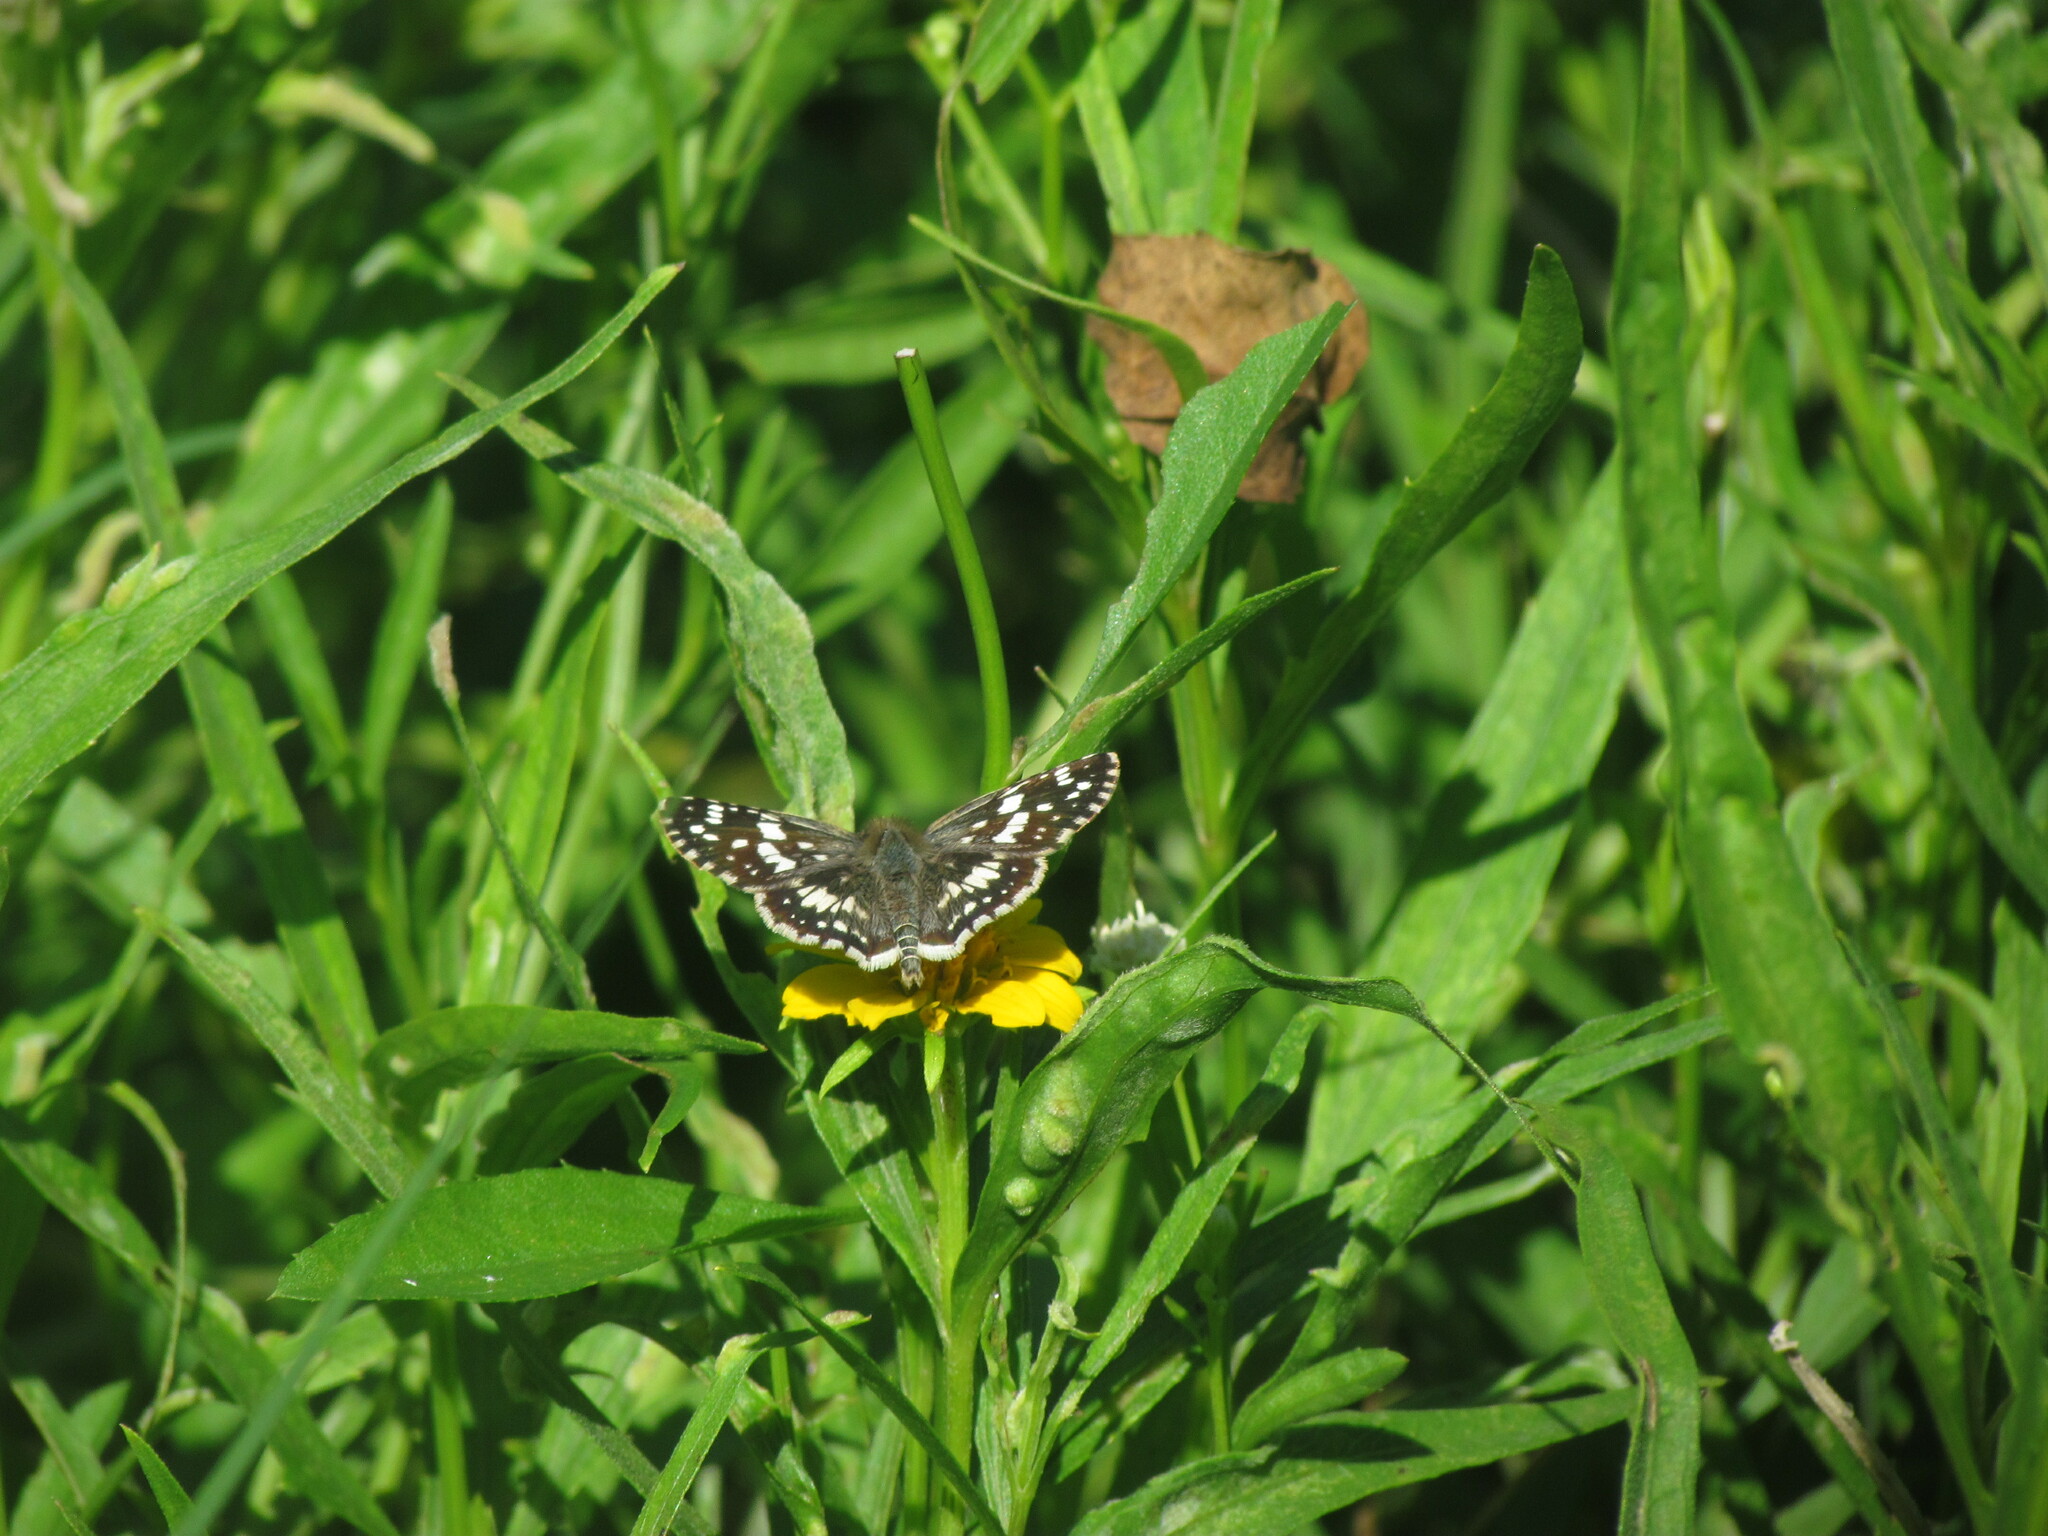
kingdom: Animalia
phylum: Arthropoda
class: Insecta
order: Lepidoptera
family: Hesperiidae
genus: Burnsius
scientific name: Burnsius orcynoides
